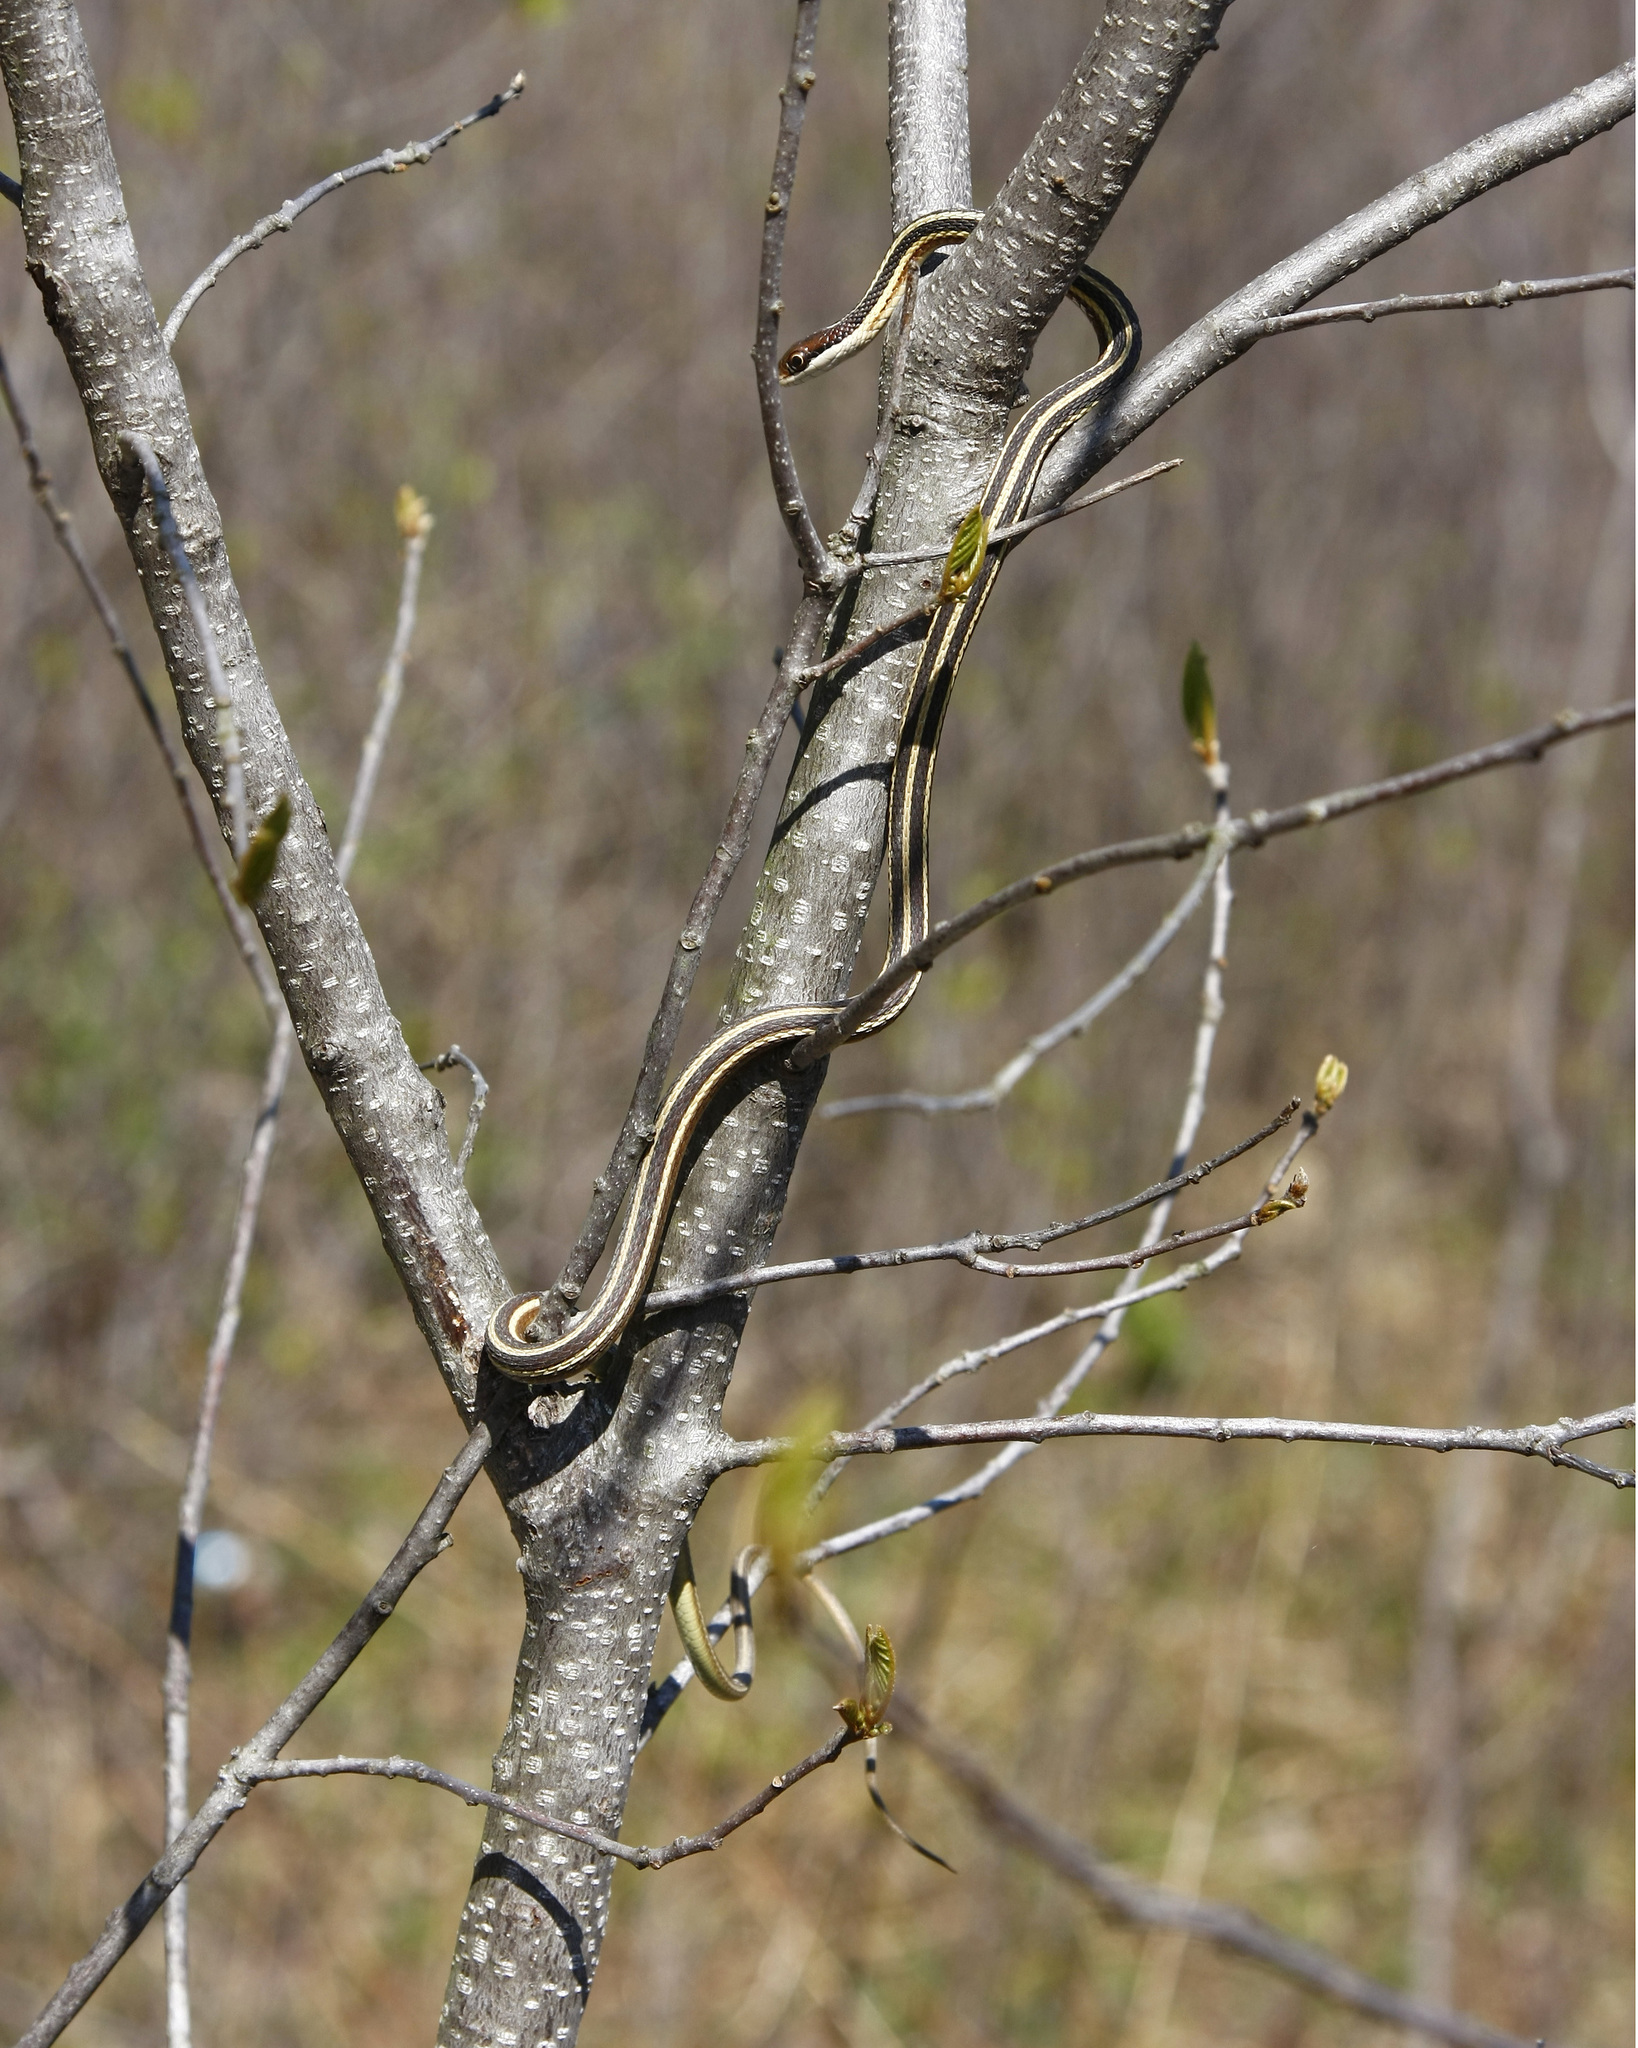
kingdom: Animalia
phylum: Chordata
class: Squamata
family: Colubridae
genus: Thamnophis
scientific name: Thamnophis saurita
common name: Eastern ribbonsnake
